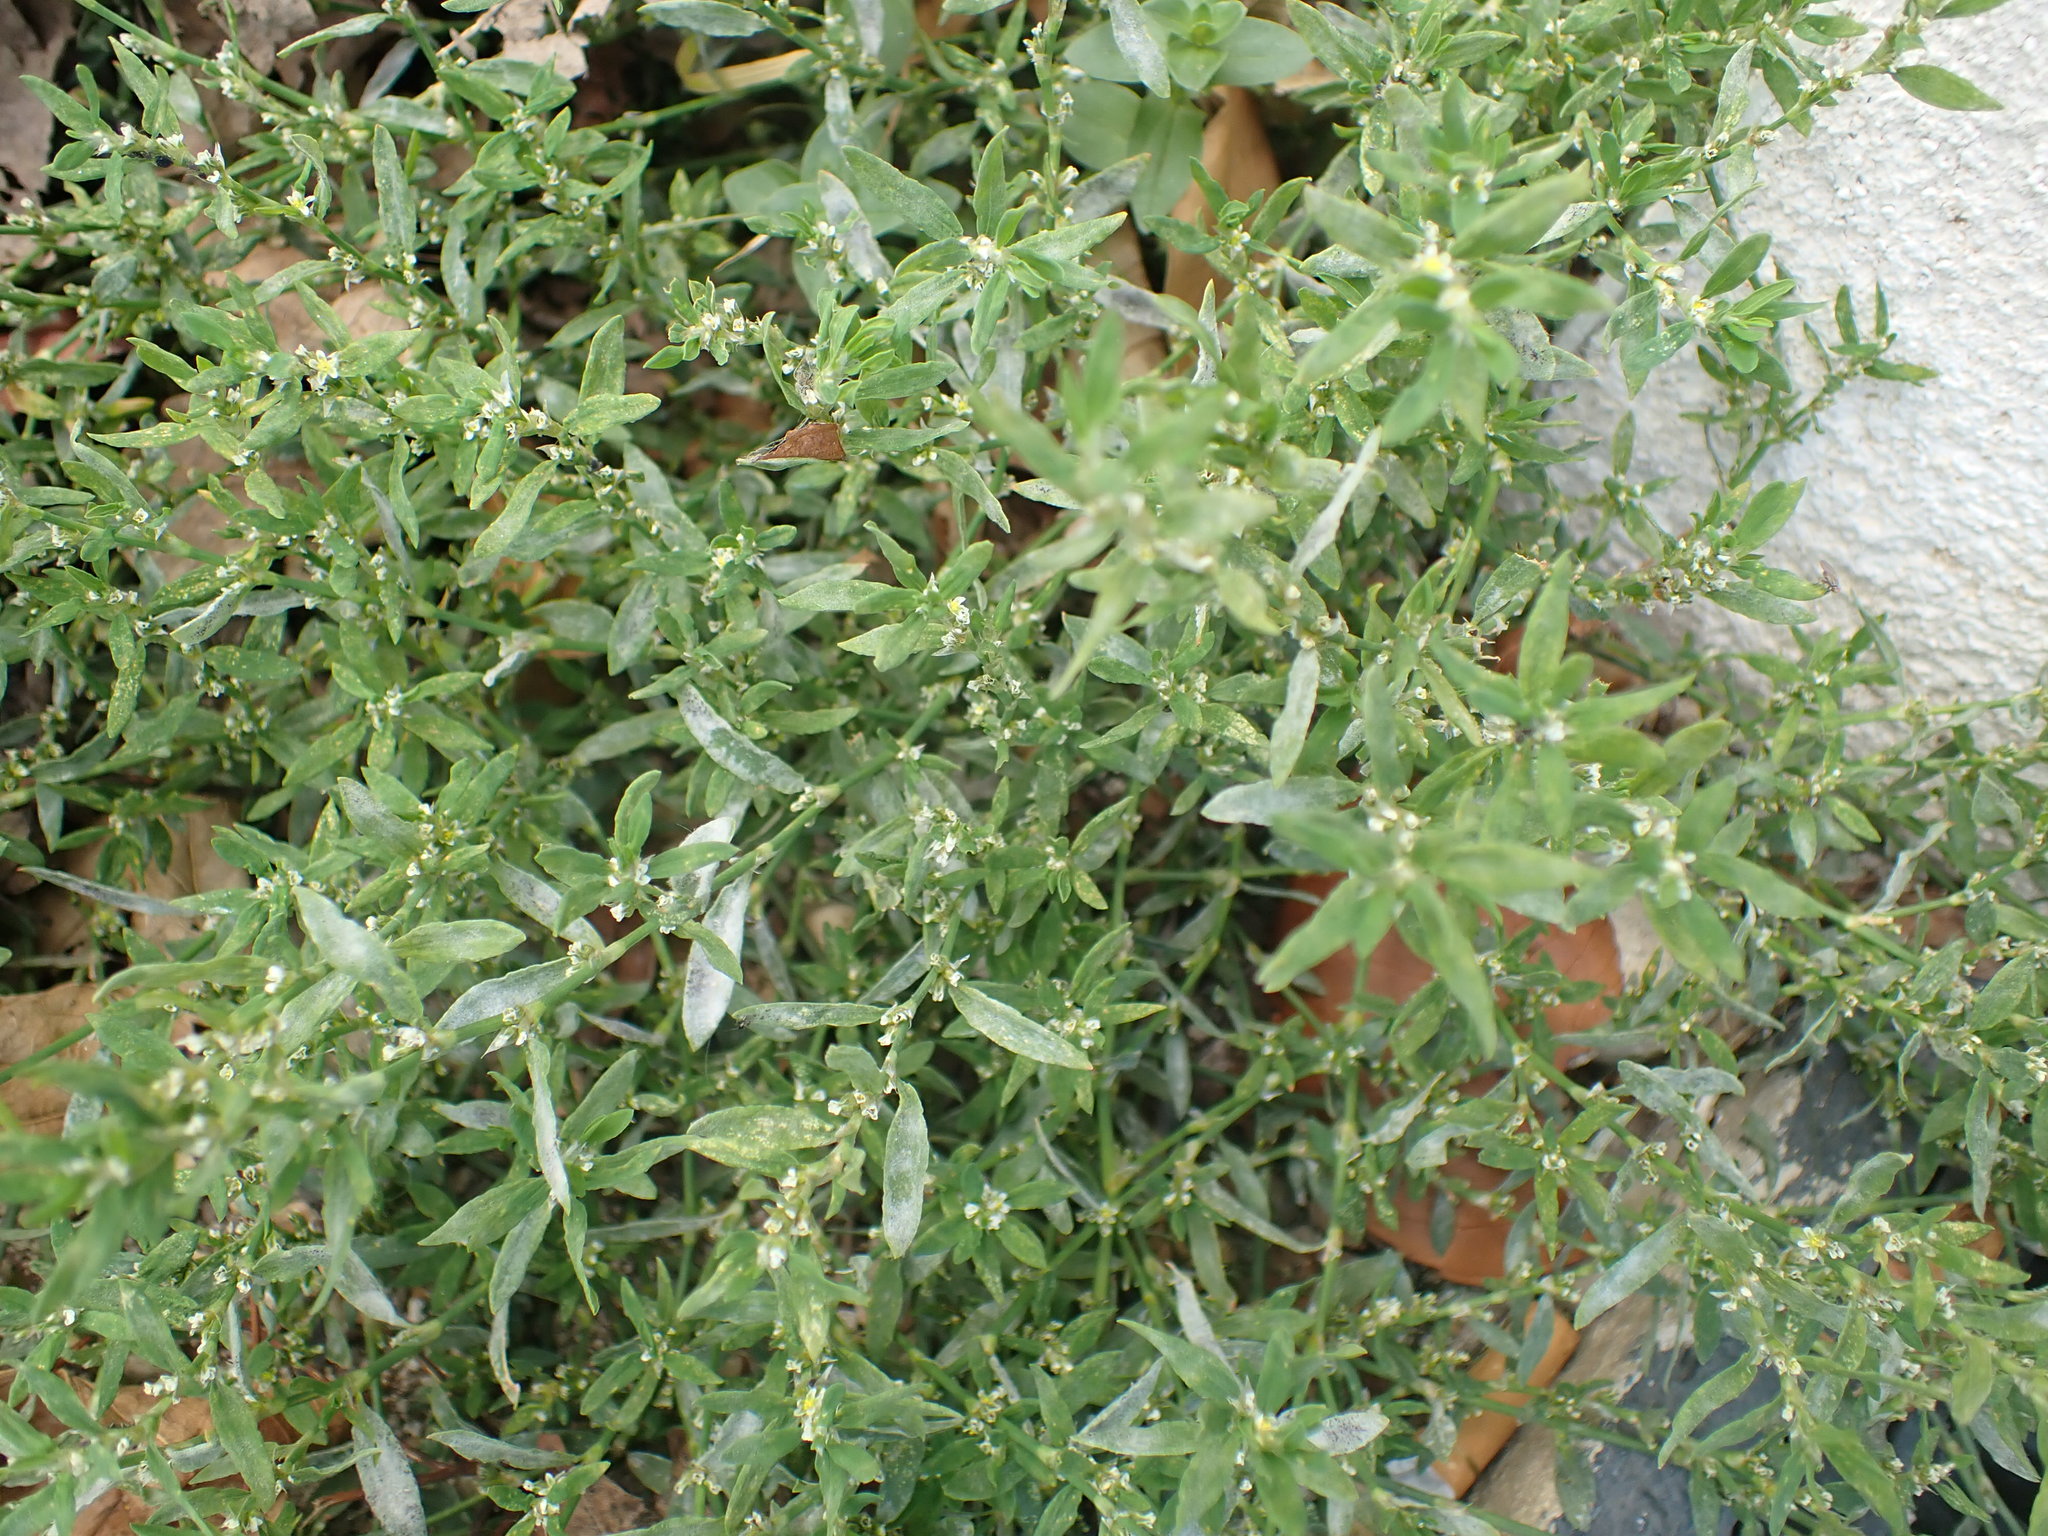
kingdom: Plantae
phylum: Tracheophyta
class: Magnoliopsida
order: Caryophyllales
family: Polygonaceae
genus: Polygonum
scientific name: Polygonum aviculare
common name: Prostrate knotweed
